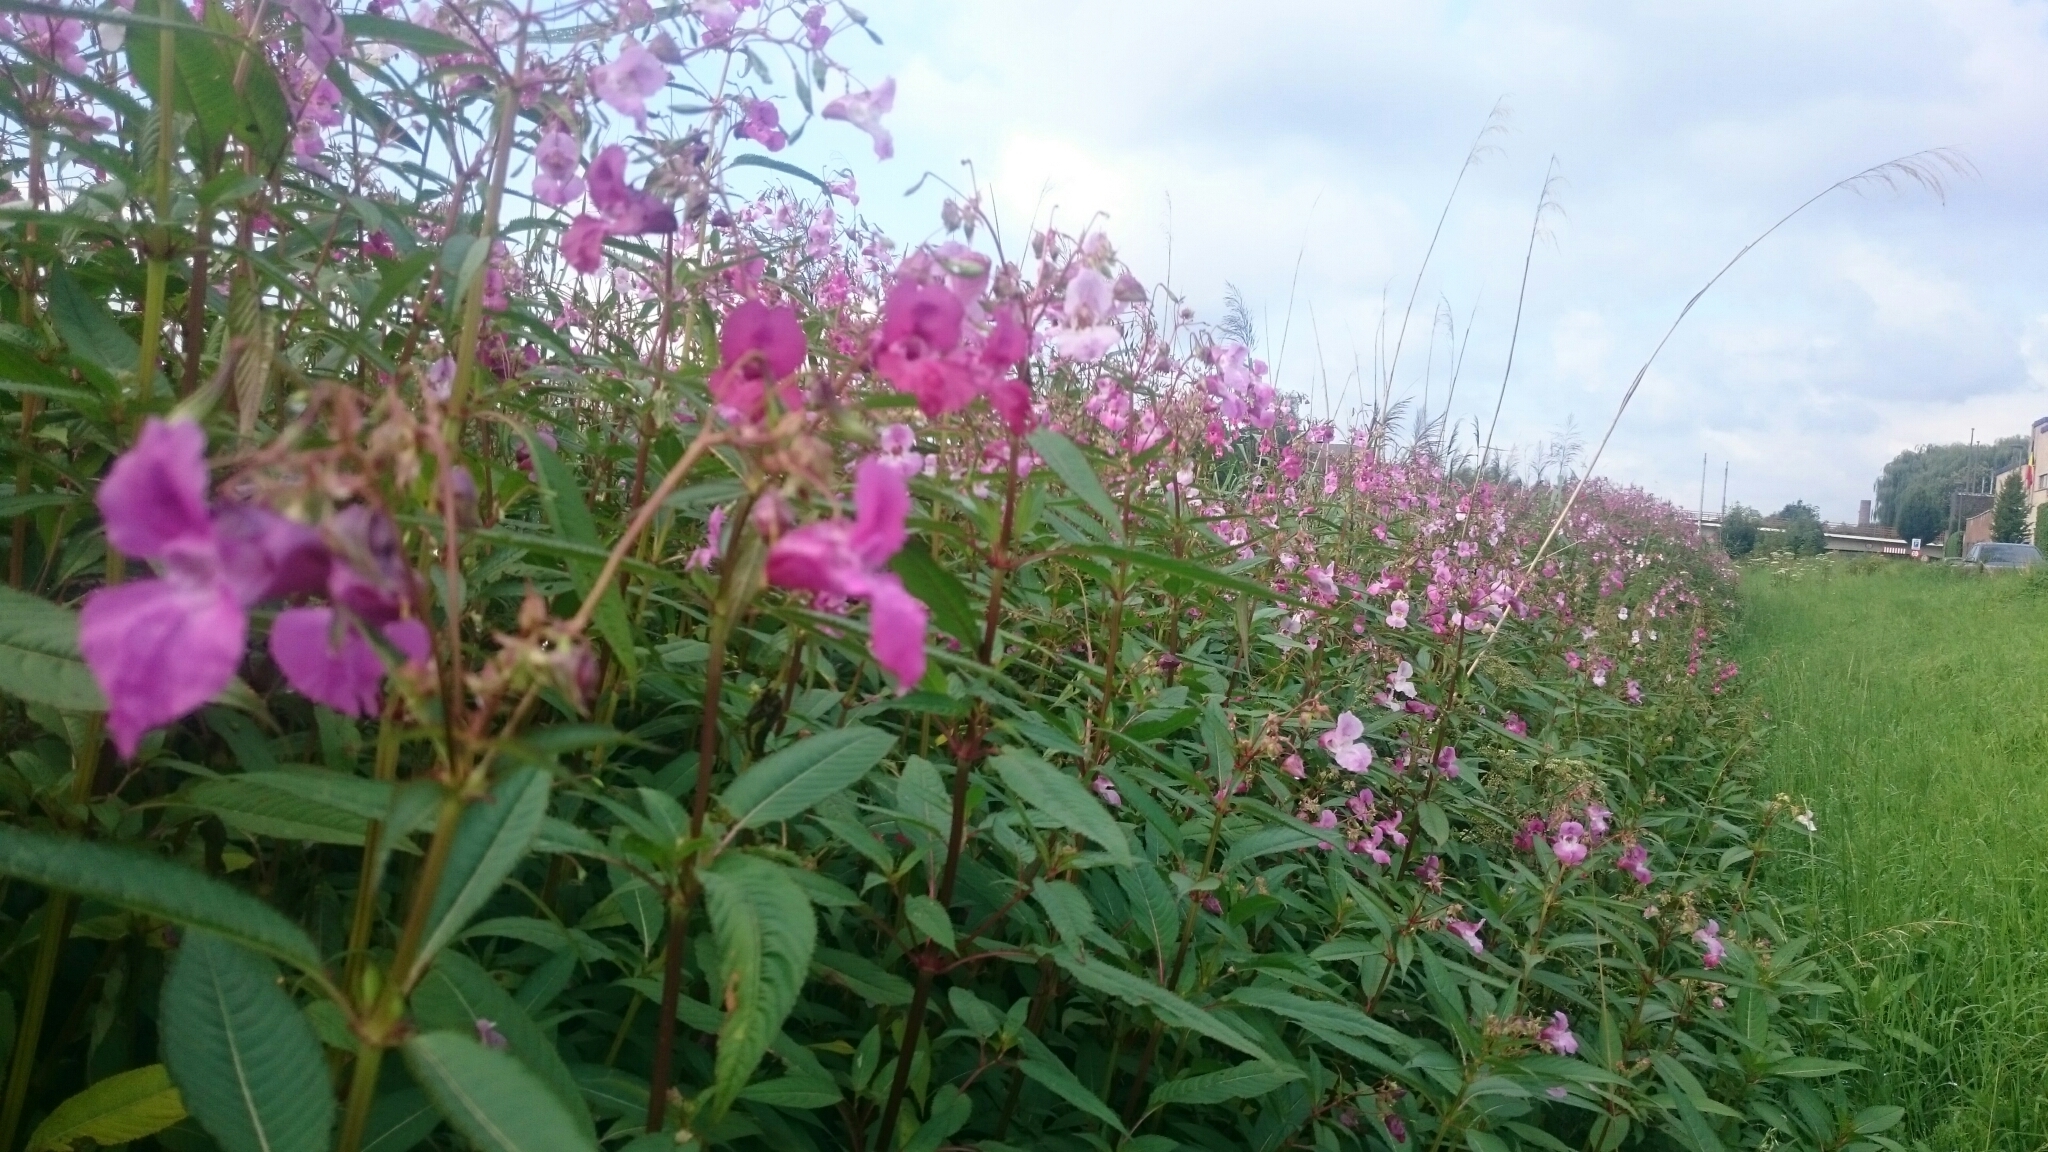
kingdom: Plantae
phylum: Tracheophyta
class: Magnoliopsida
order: Ericales
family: Balsaminaceae
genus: Impatiens
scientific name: Impatiens glandulifera
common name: Himalayan balsam
